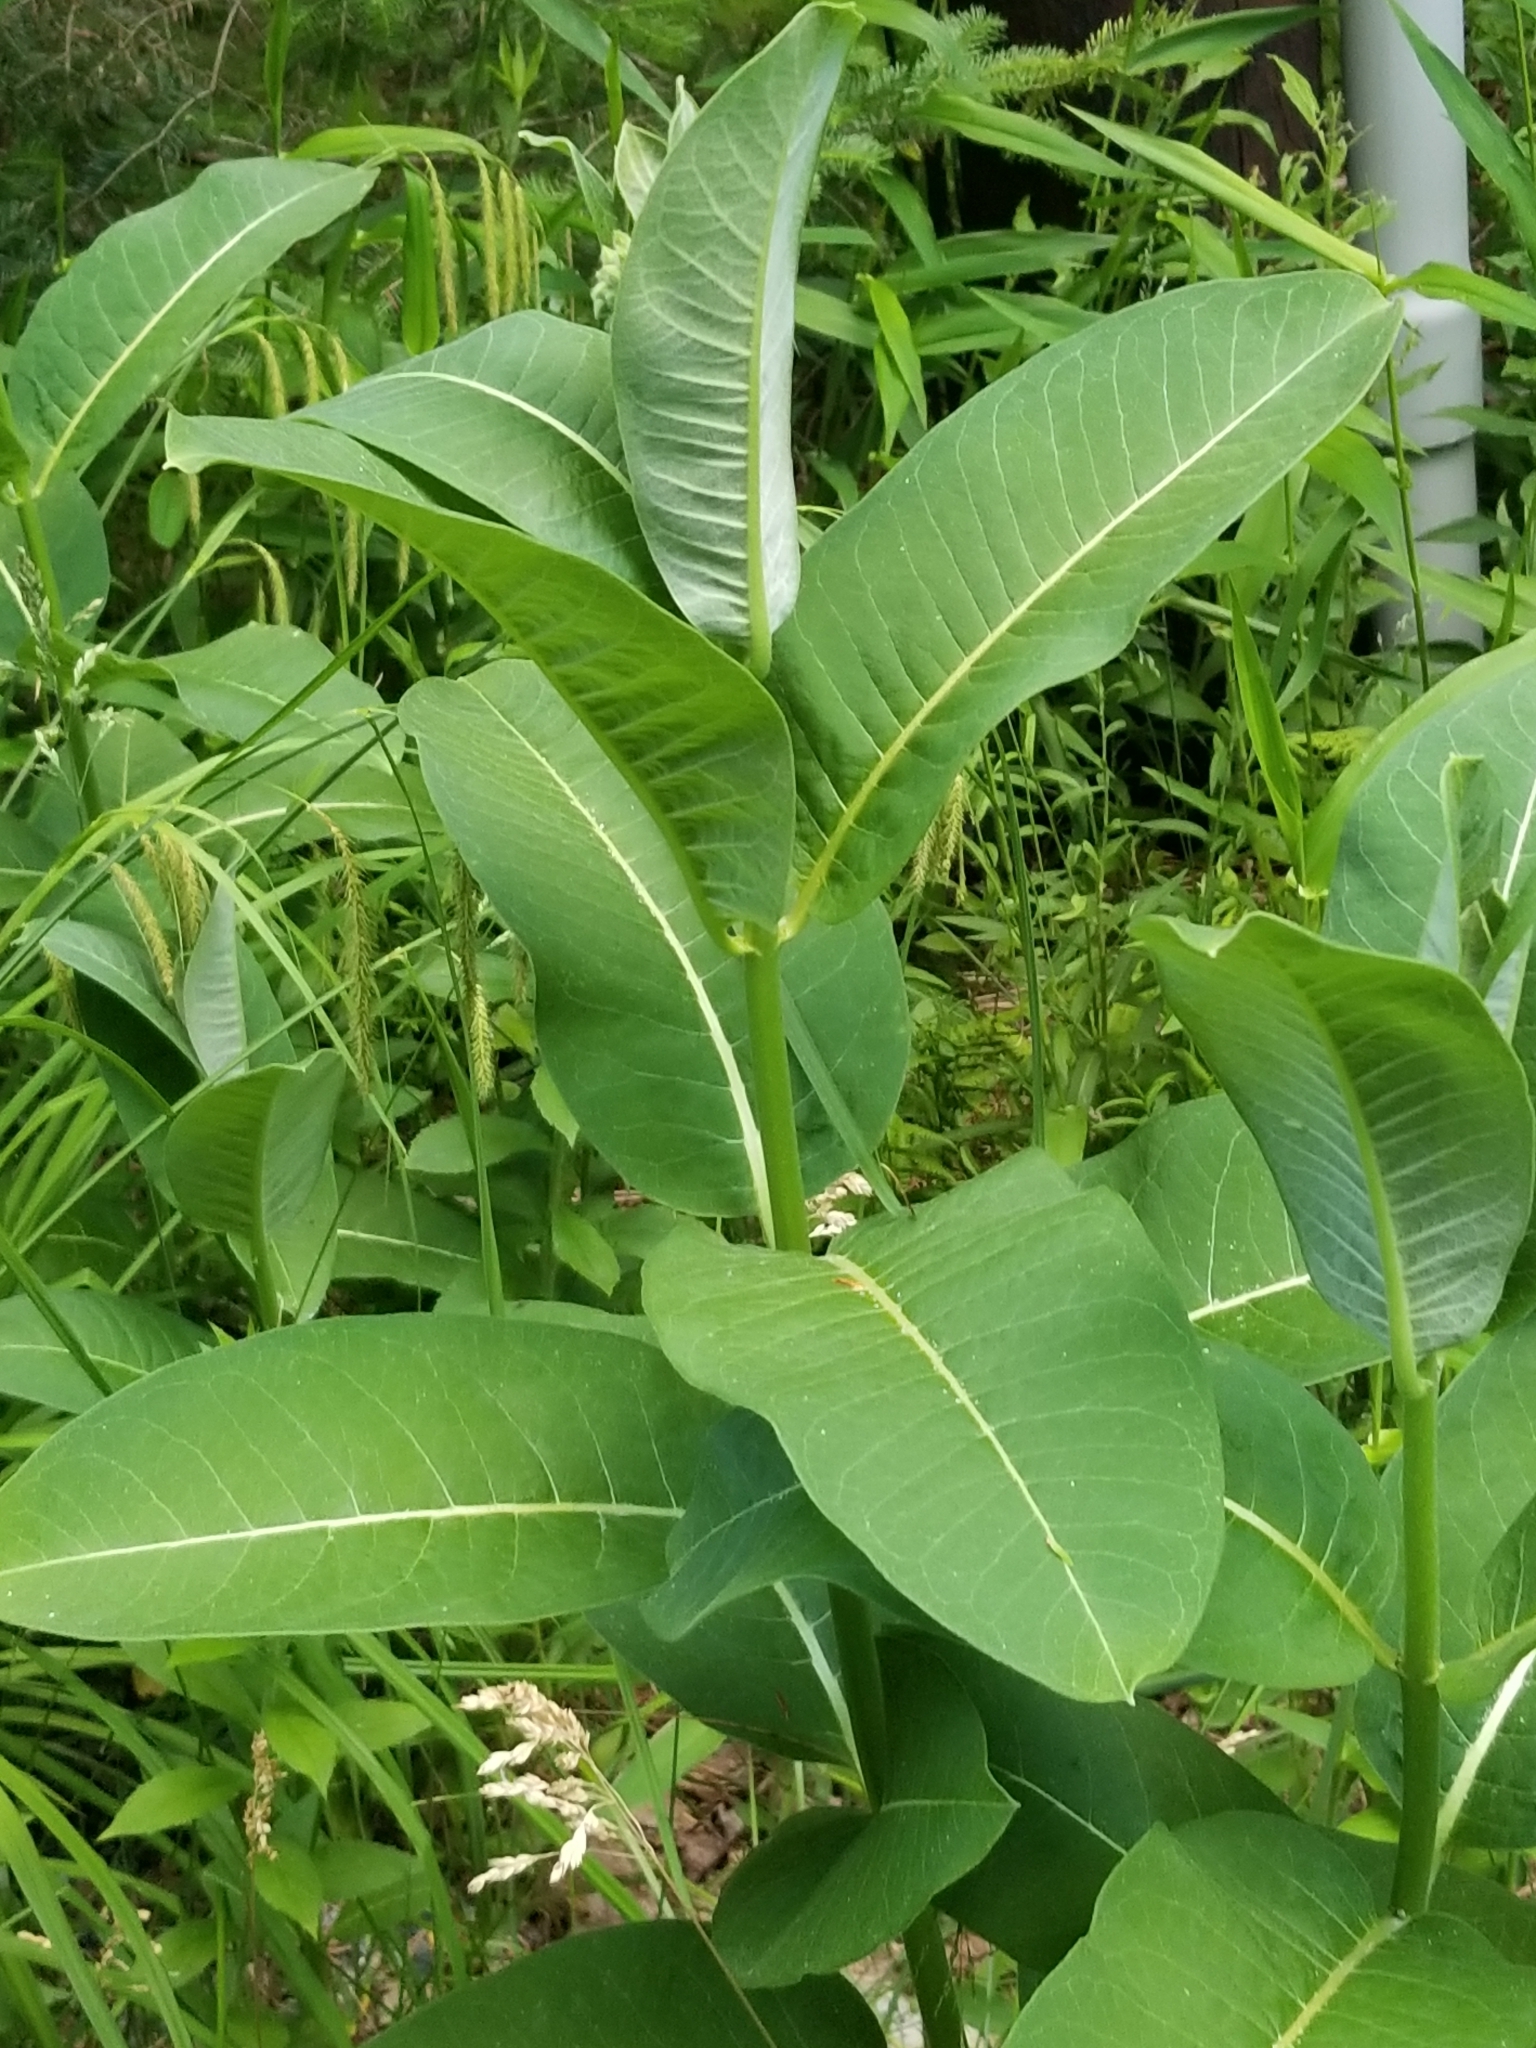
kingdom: Plantae
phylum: Tracheophyta
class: Magnoliopsida
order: Gentianales
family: Apocynaceae
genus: Asclepias
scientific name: Asclepias syriaca
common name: Common milkweed
